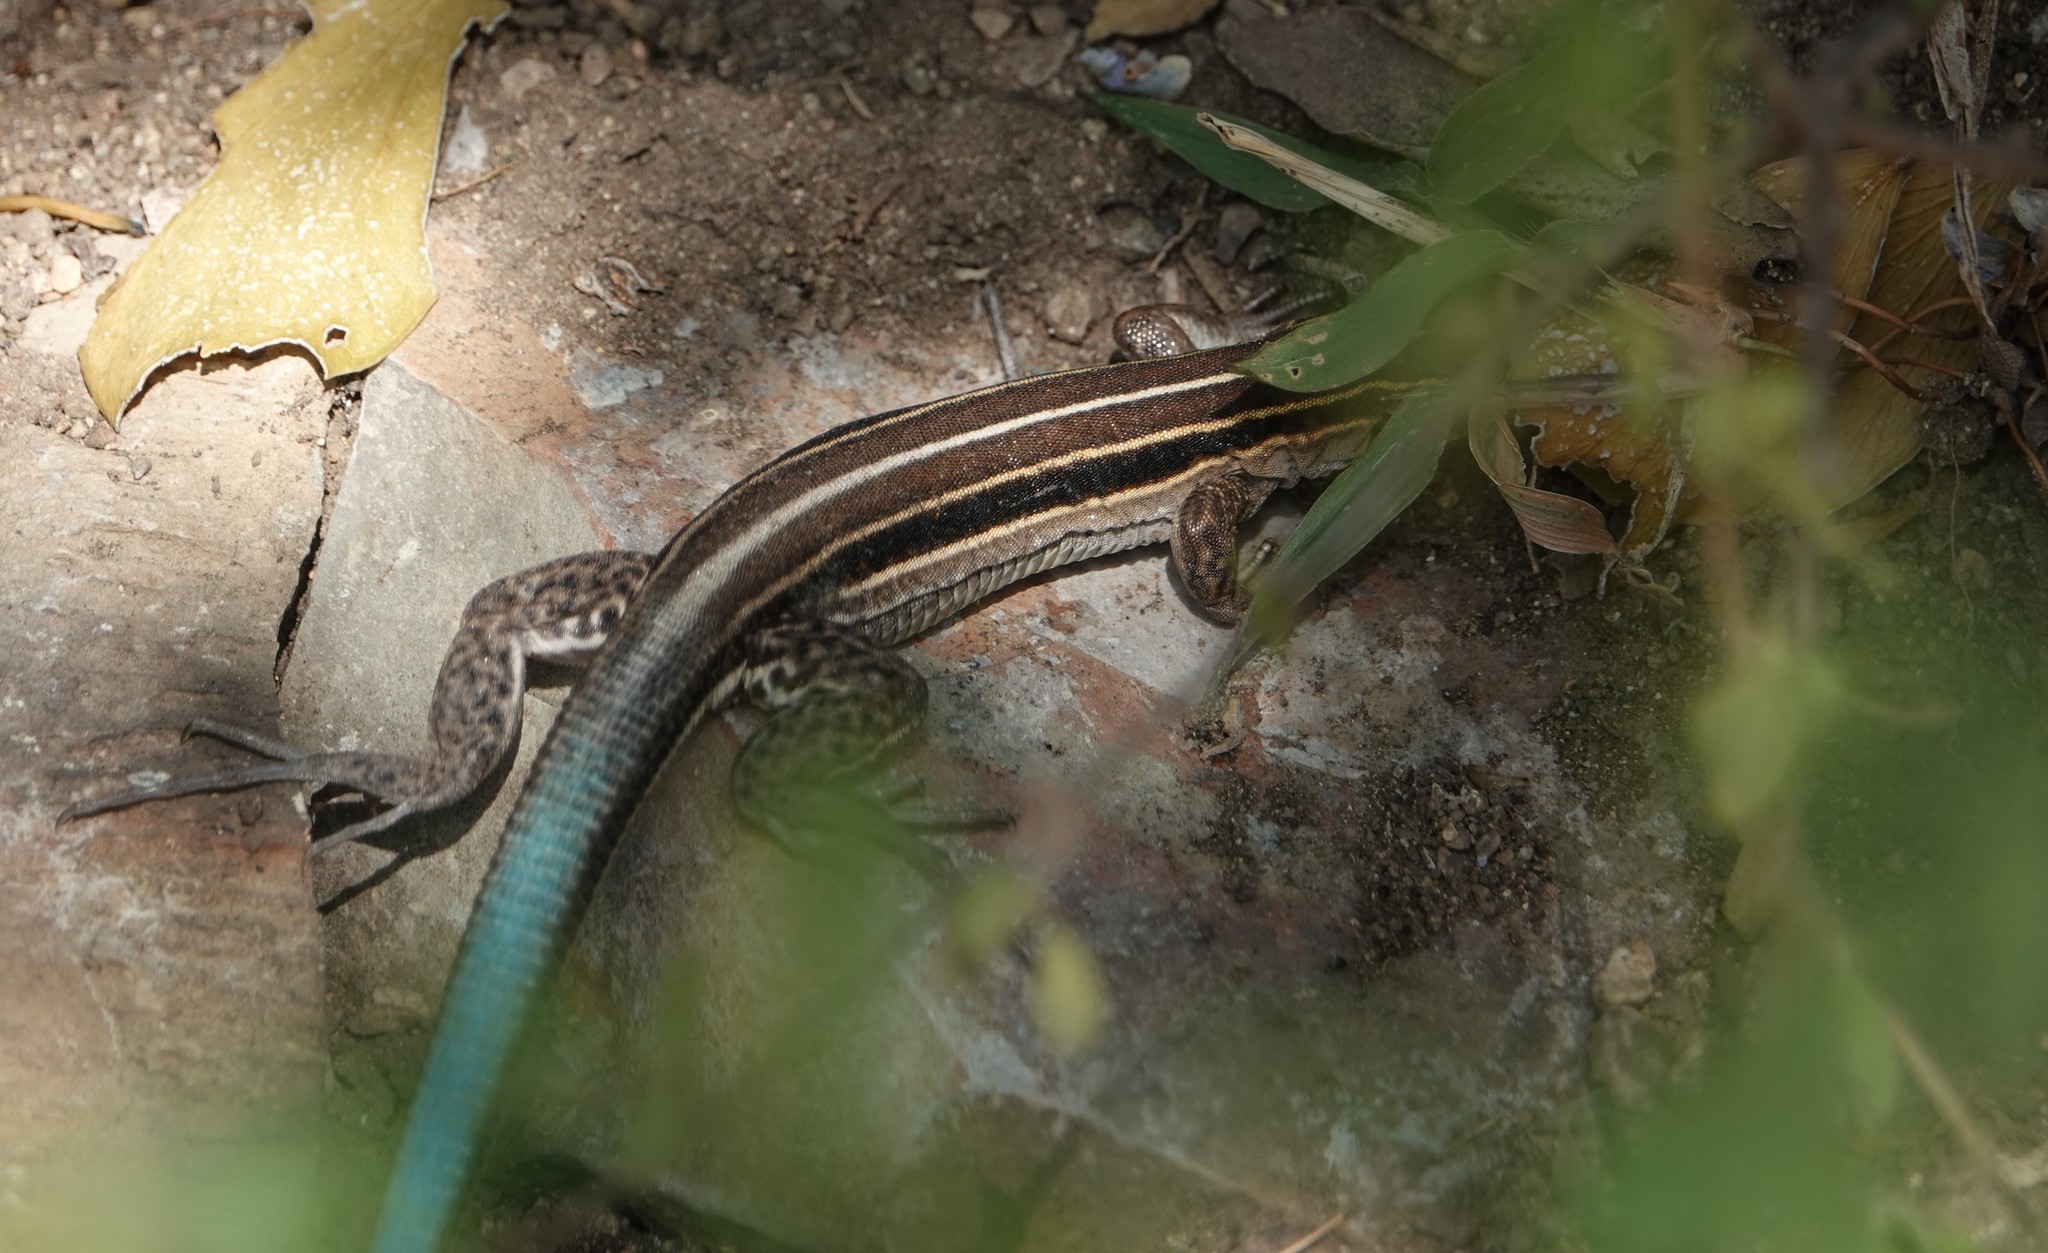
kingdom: Animalia
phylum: Chordata
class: Squamata
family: Teiidae
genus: Pholidoscelis
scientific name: Pholidoscelis auberi
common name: Auber's ameiva
